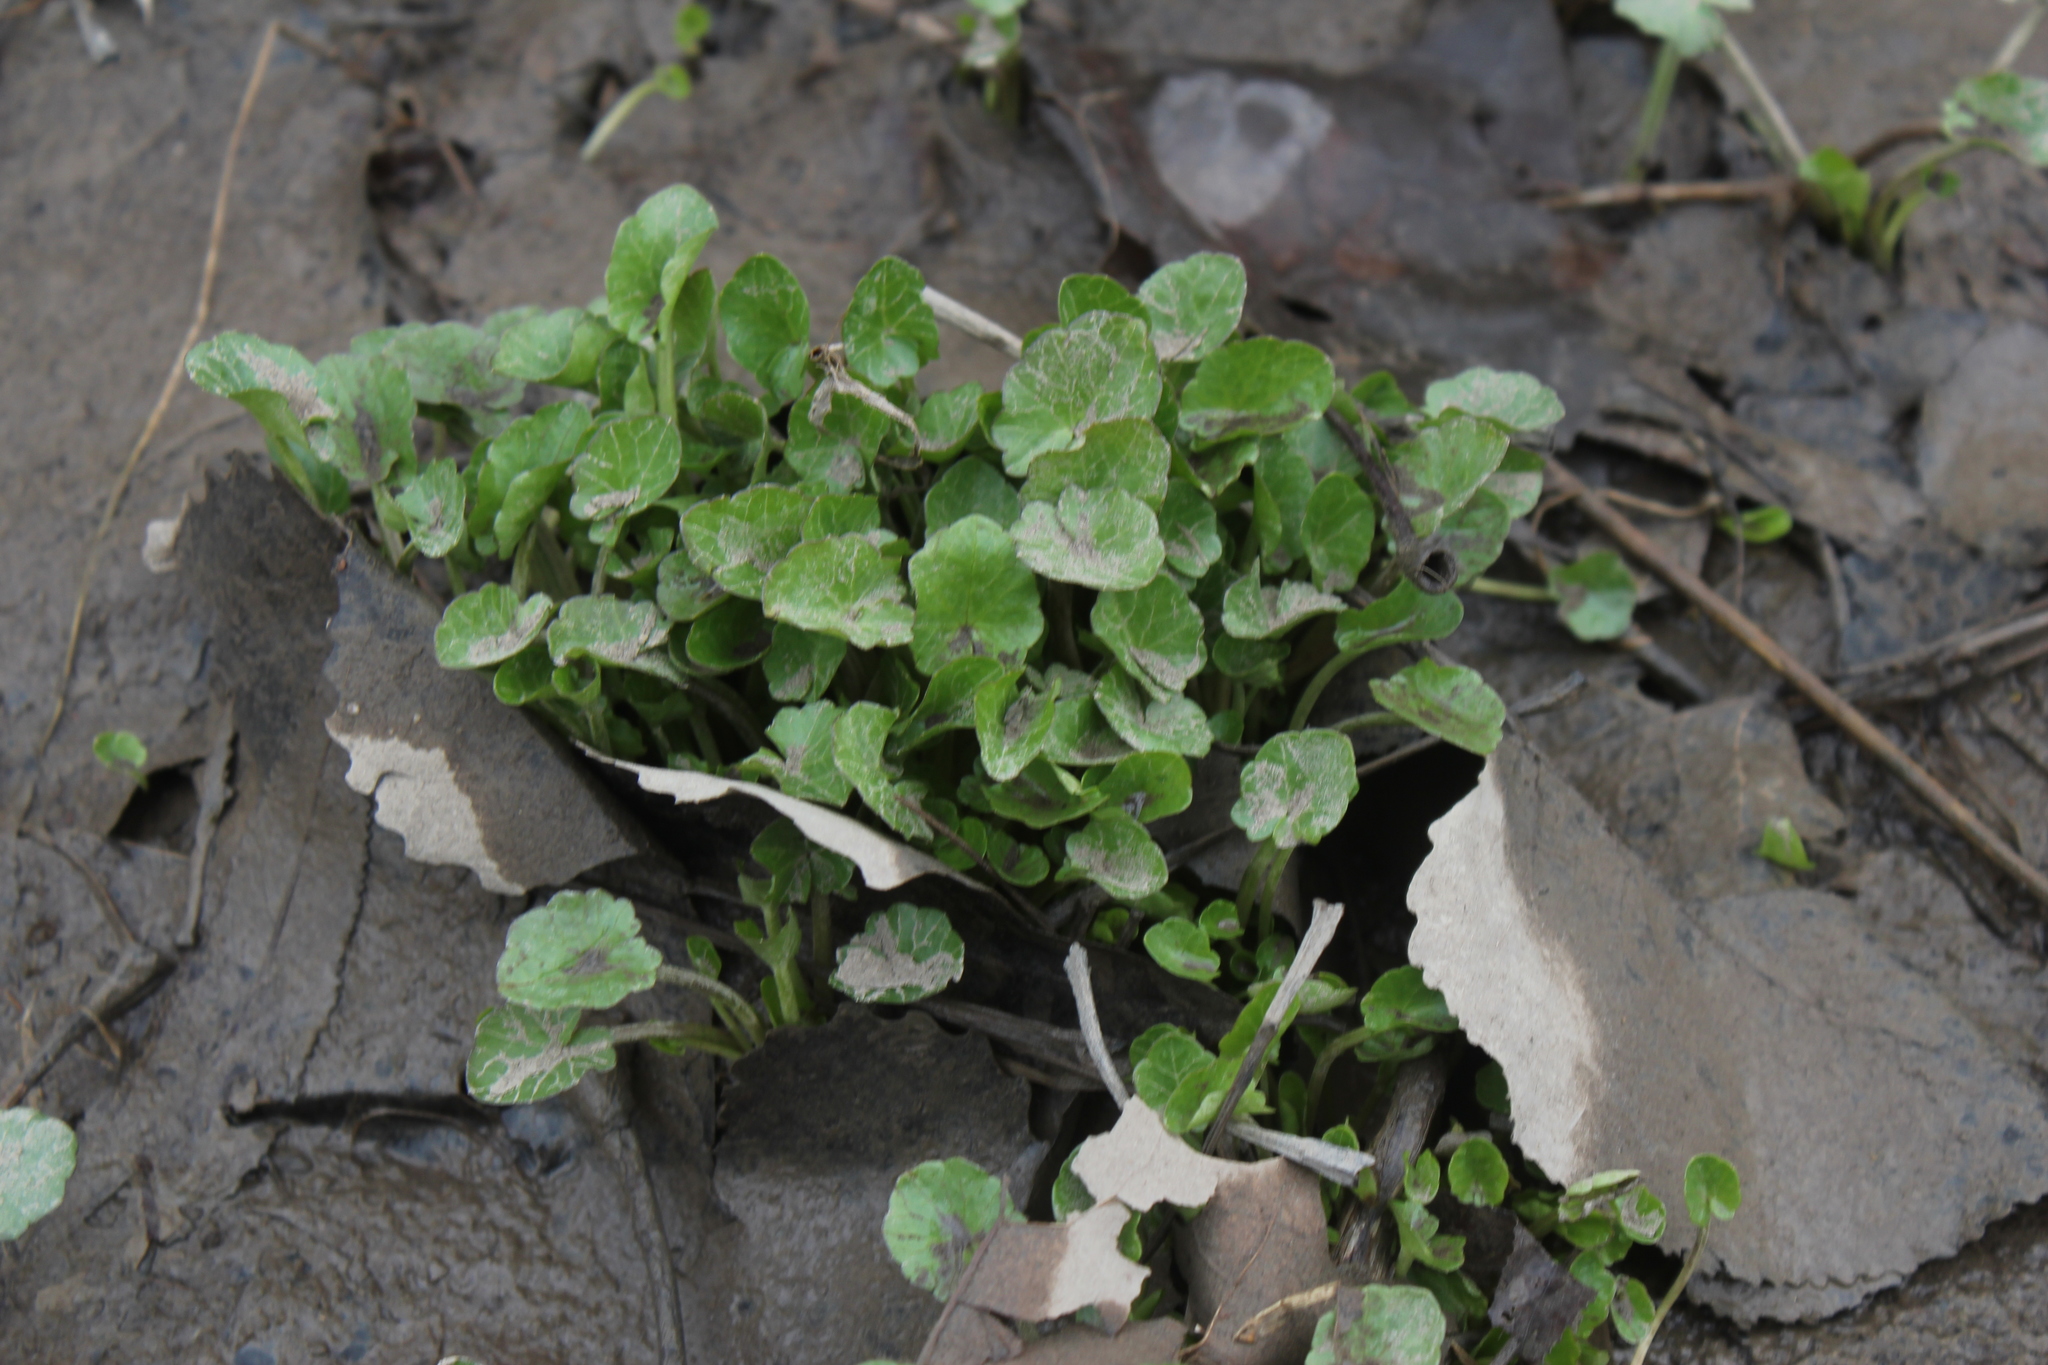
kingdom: Plantae
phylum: Tracheophyta
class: Magnoliopsida
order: Ranunculales
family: Ranunculaceae
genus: Ficaria
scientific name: Ficaria verna
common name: Lesser celandine
